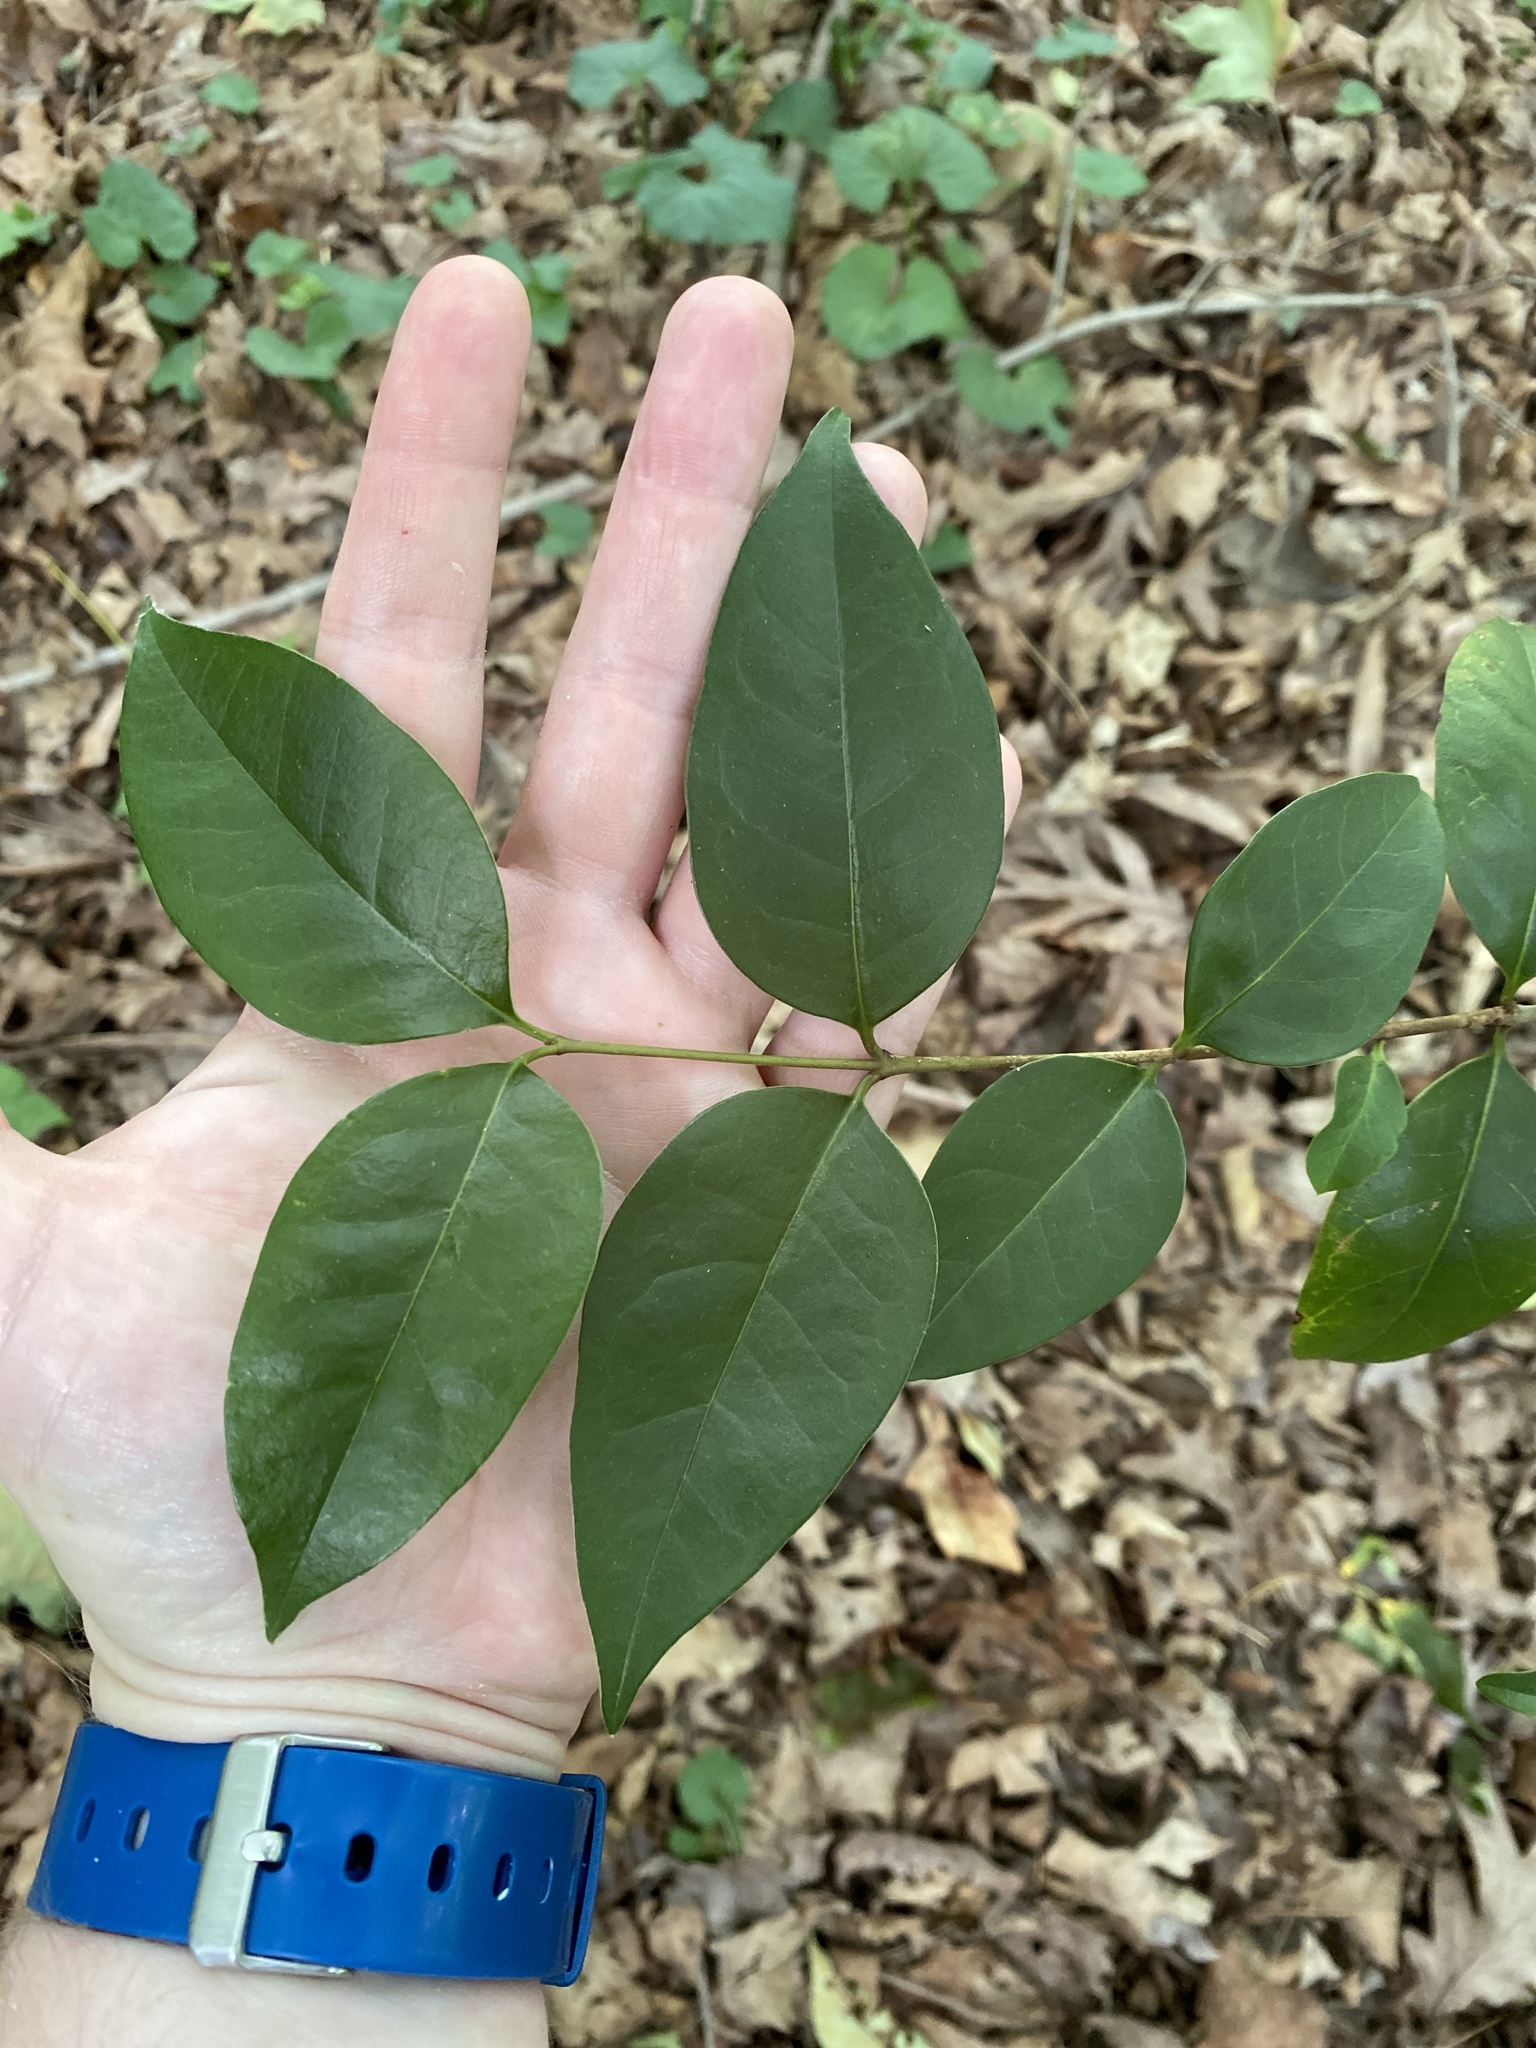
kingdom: Plantae
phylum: Tracheophyta
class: Magnoliopsida
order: Lamiales
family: Oleaceae
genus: Ligustrum
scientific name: Ligustrum lucidum
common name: Glossy privet
